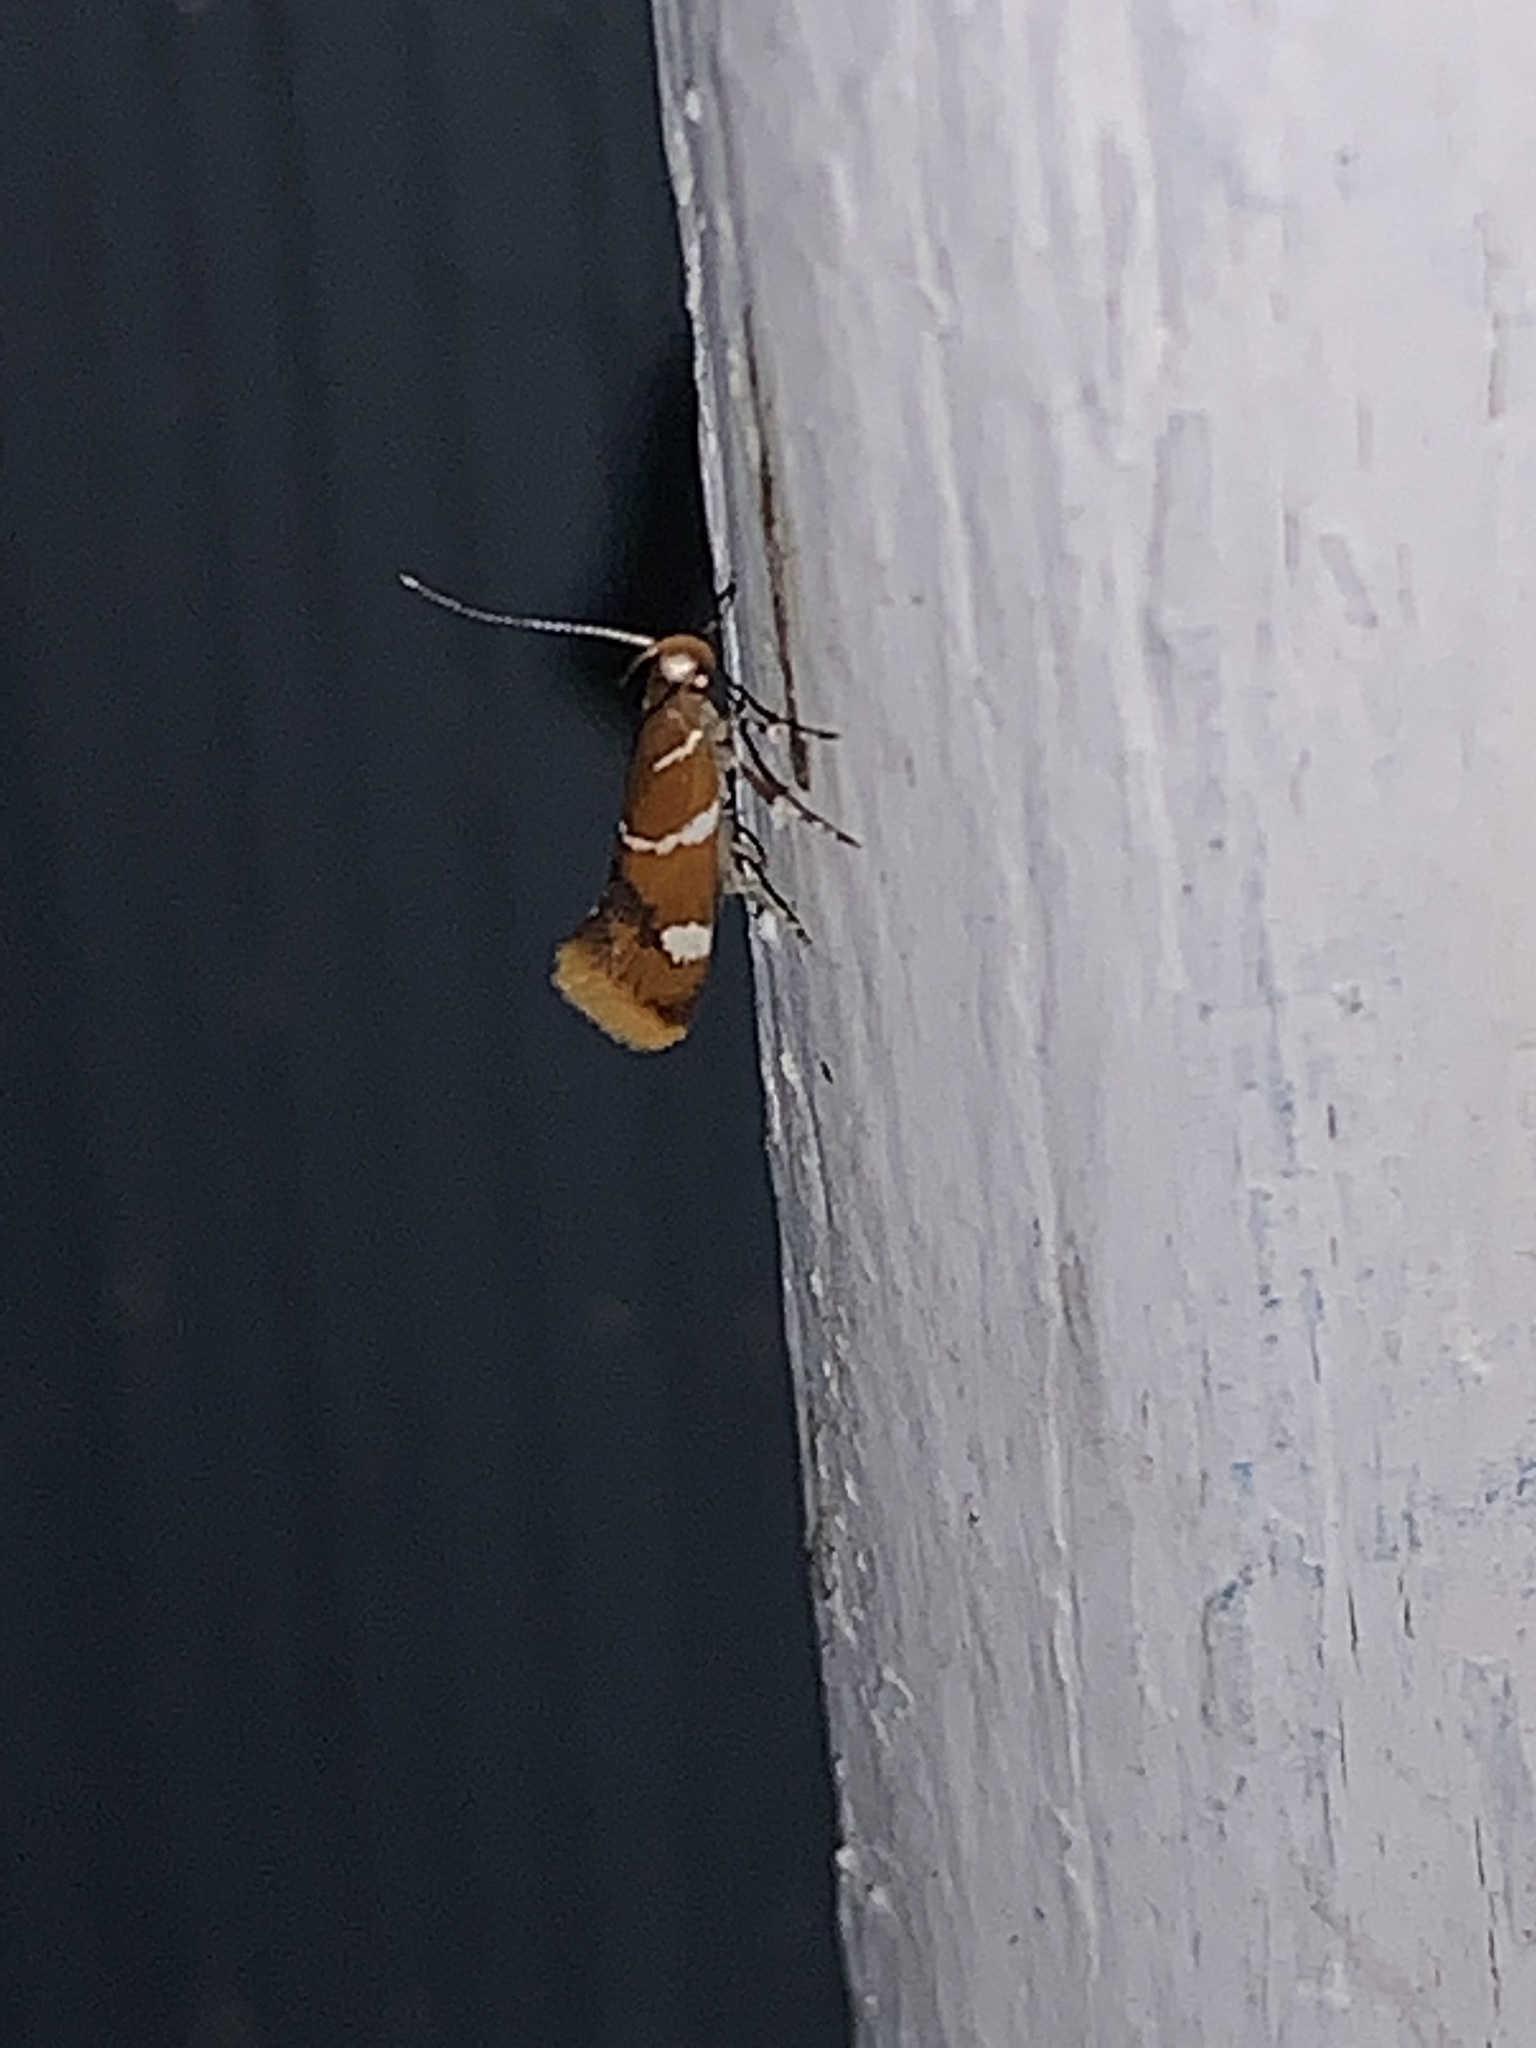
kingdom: Animalia
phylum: Arthropoda
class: Insecta
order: Lepidoptera
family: Oecophoridae
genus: Promalactis
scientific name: Promalactis suzukiella
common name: Moth
